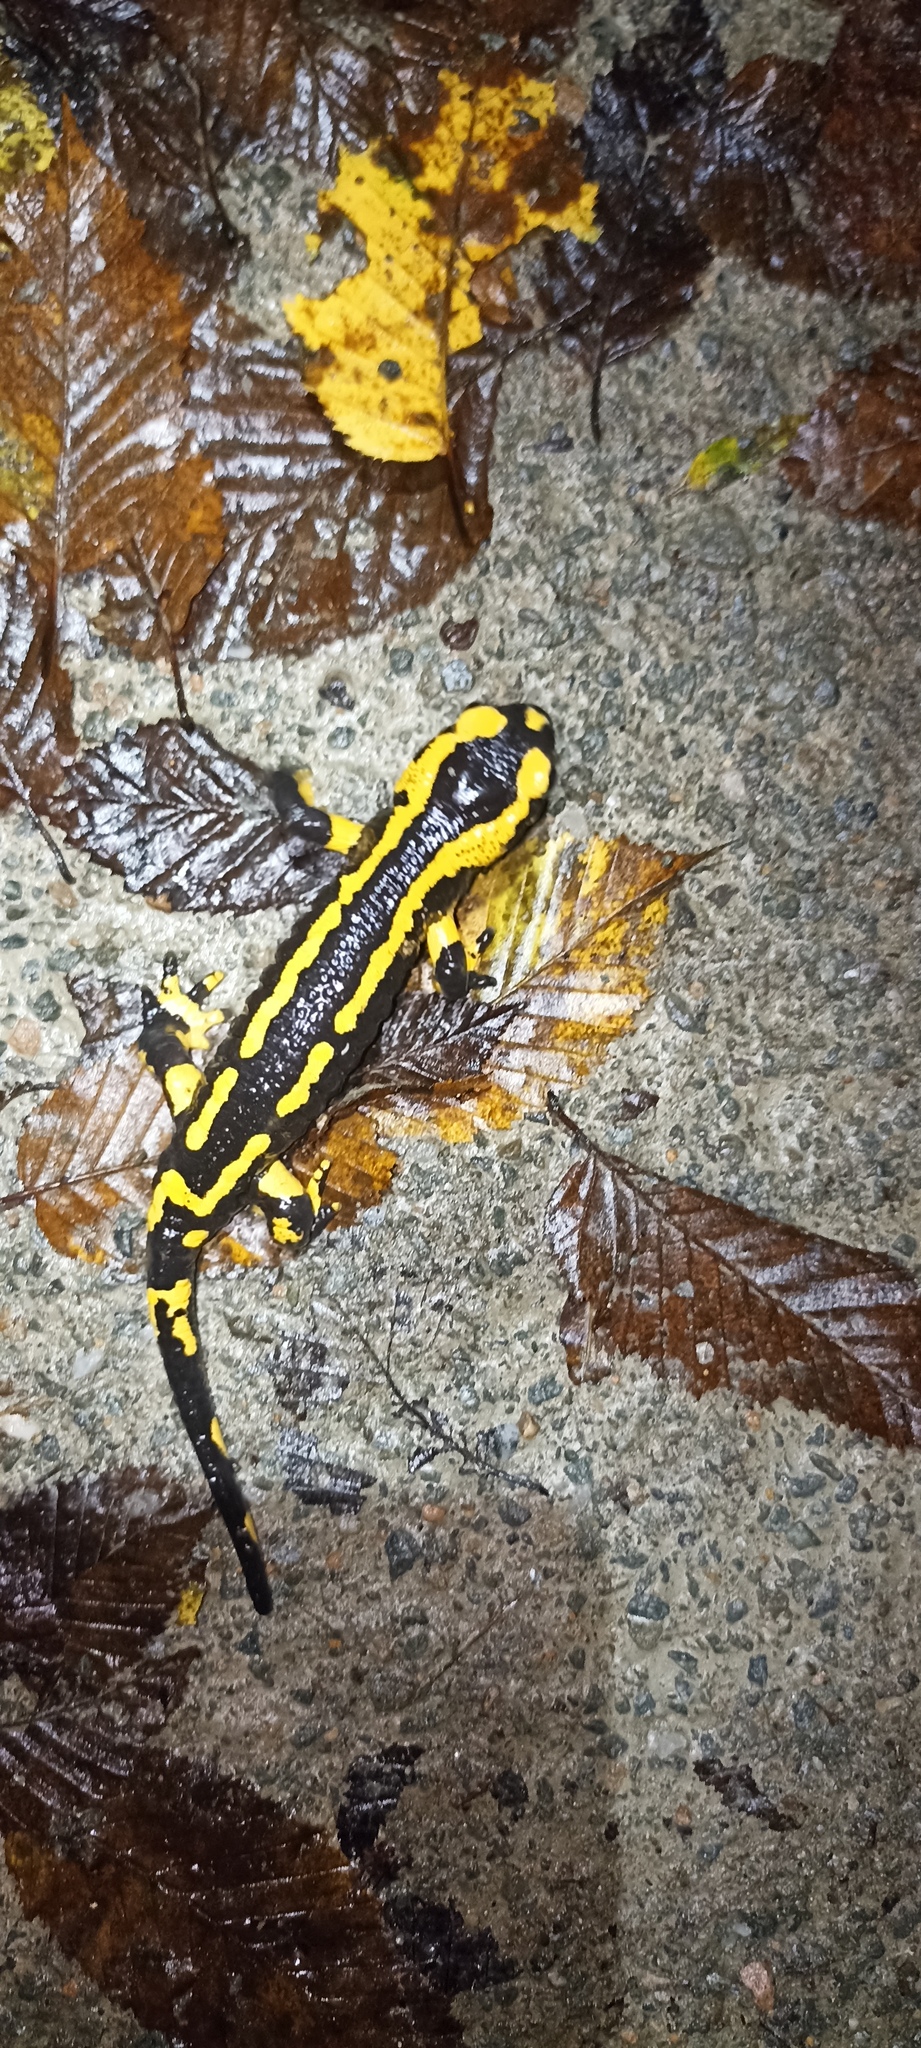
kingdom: Animalia
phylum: Chordata
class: Amphibia
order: Caudata
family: Salamandridae
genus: Salamandra
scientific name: Salamandra salamandra
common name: Fire salamander
